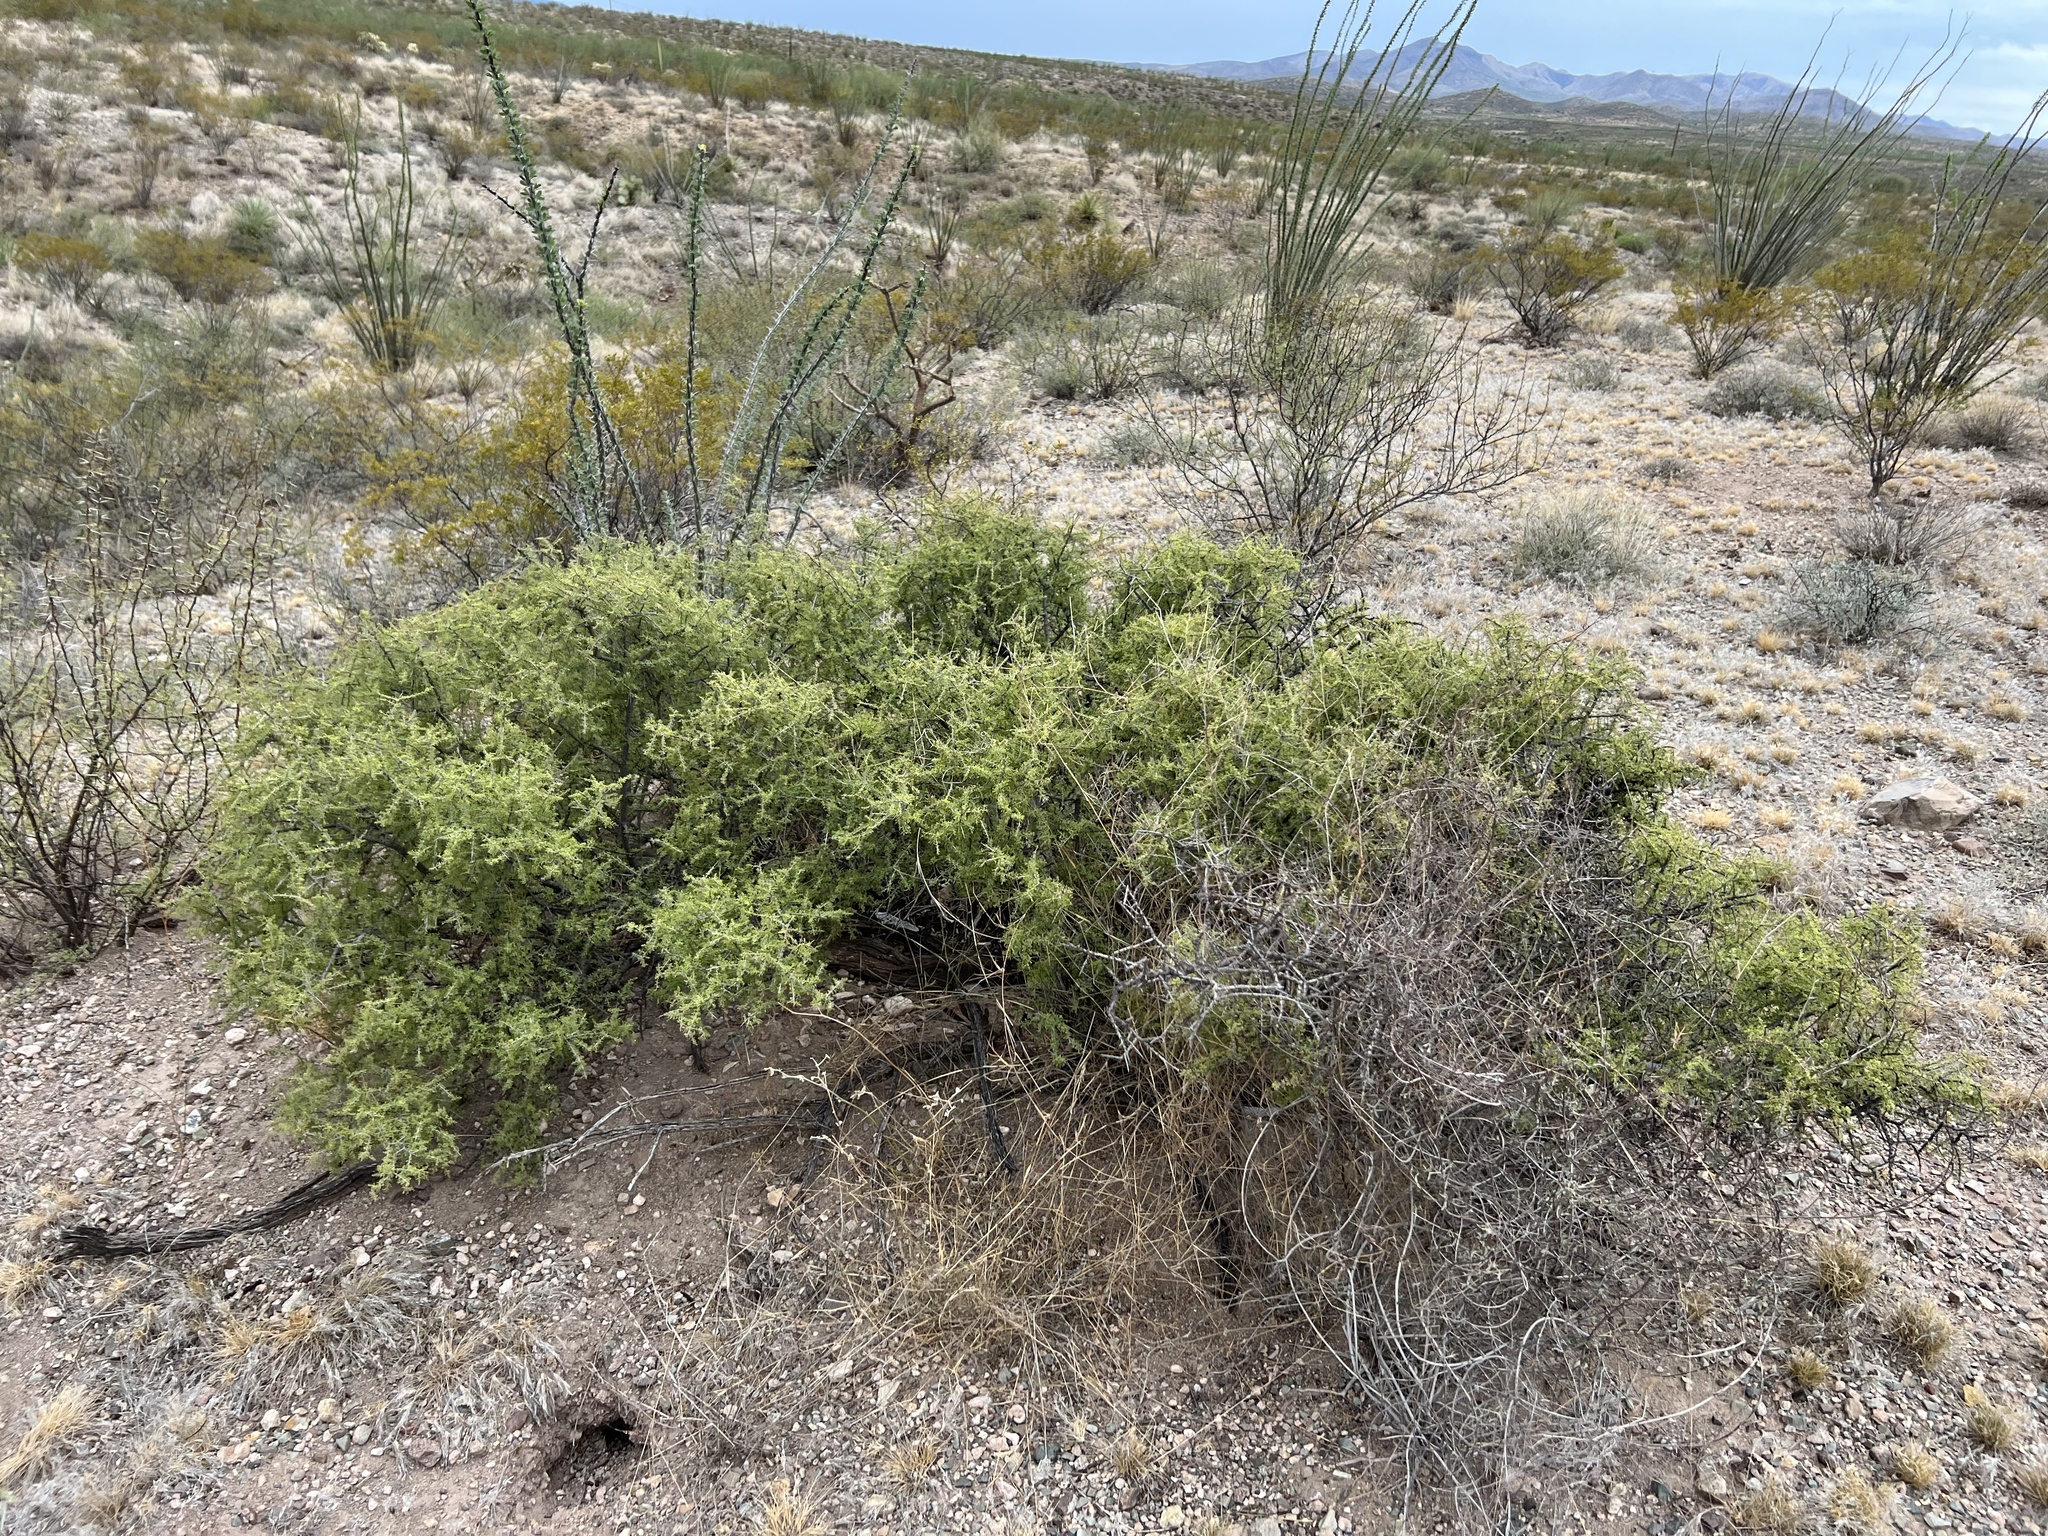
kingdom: Plantae
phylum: Tracheophyta
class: Magnoliopsida
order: Rosales
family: Rhamnaceae
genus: Condalia
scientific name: Condalia warnockii
